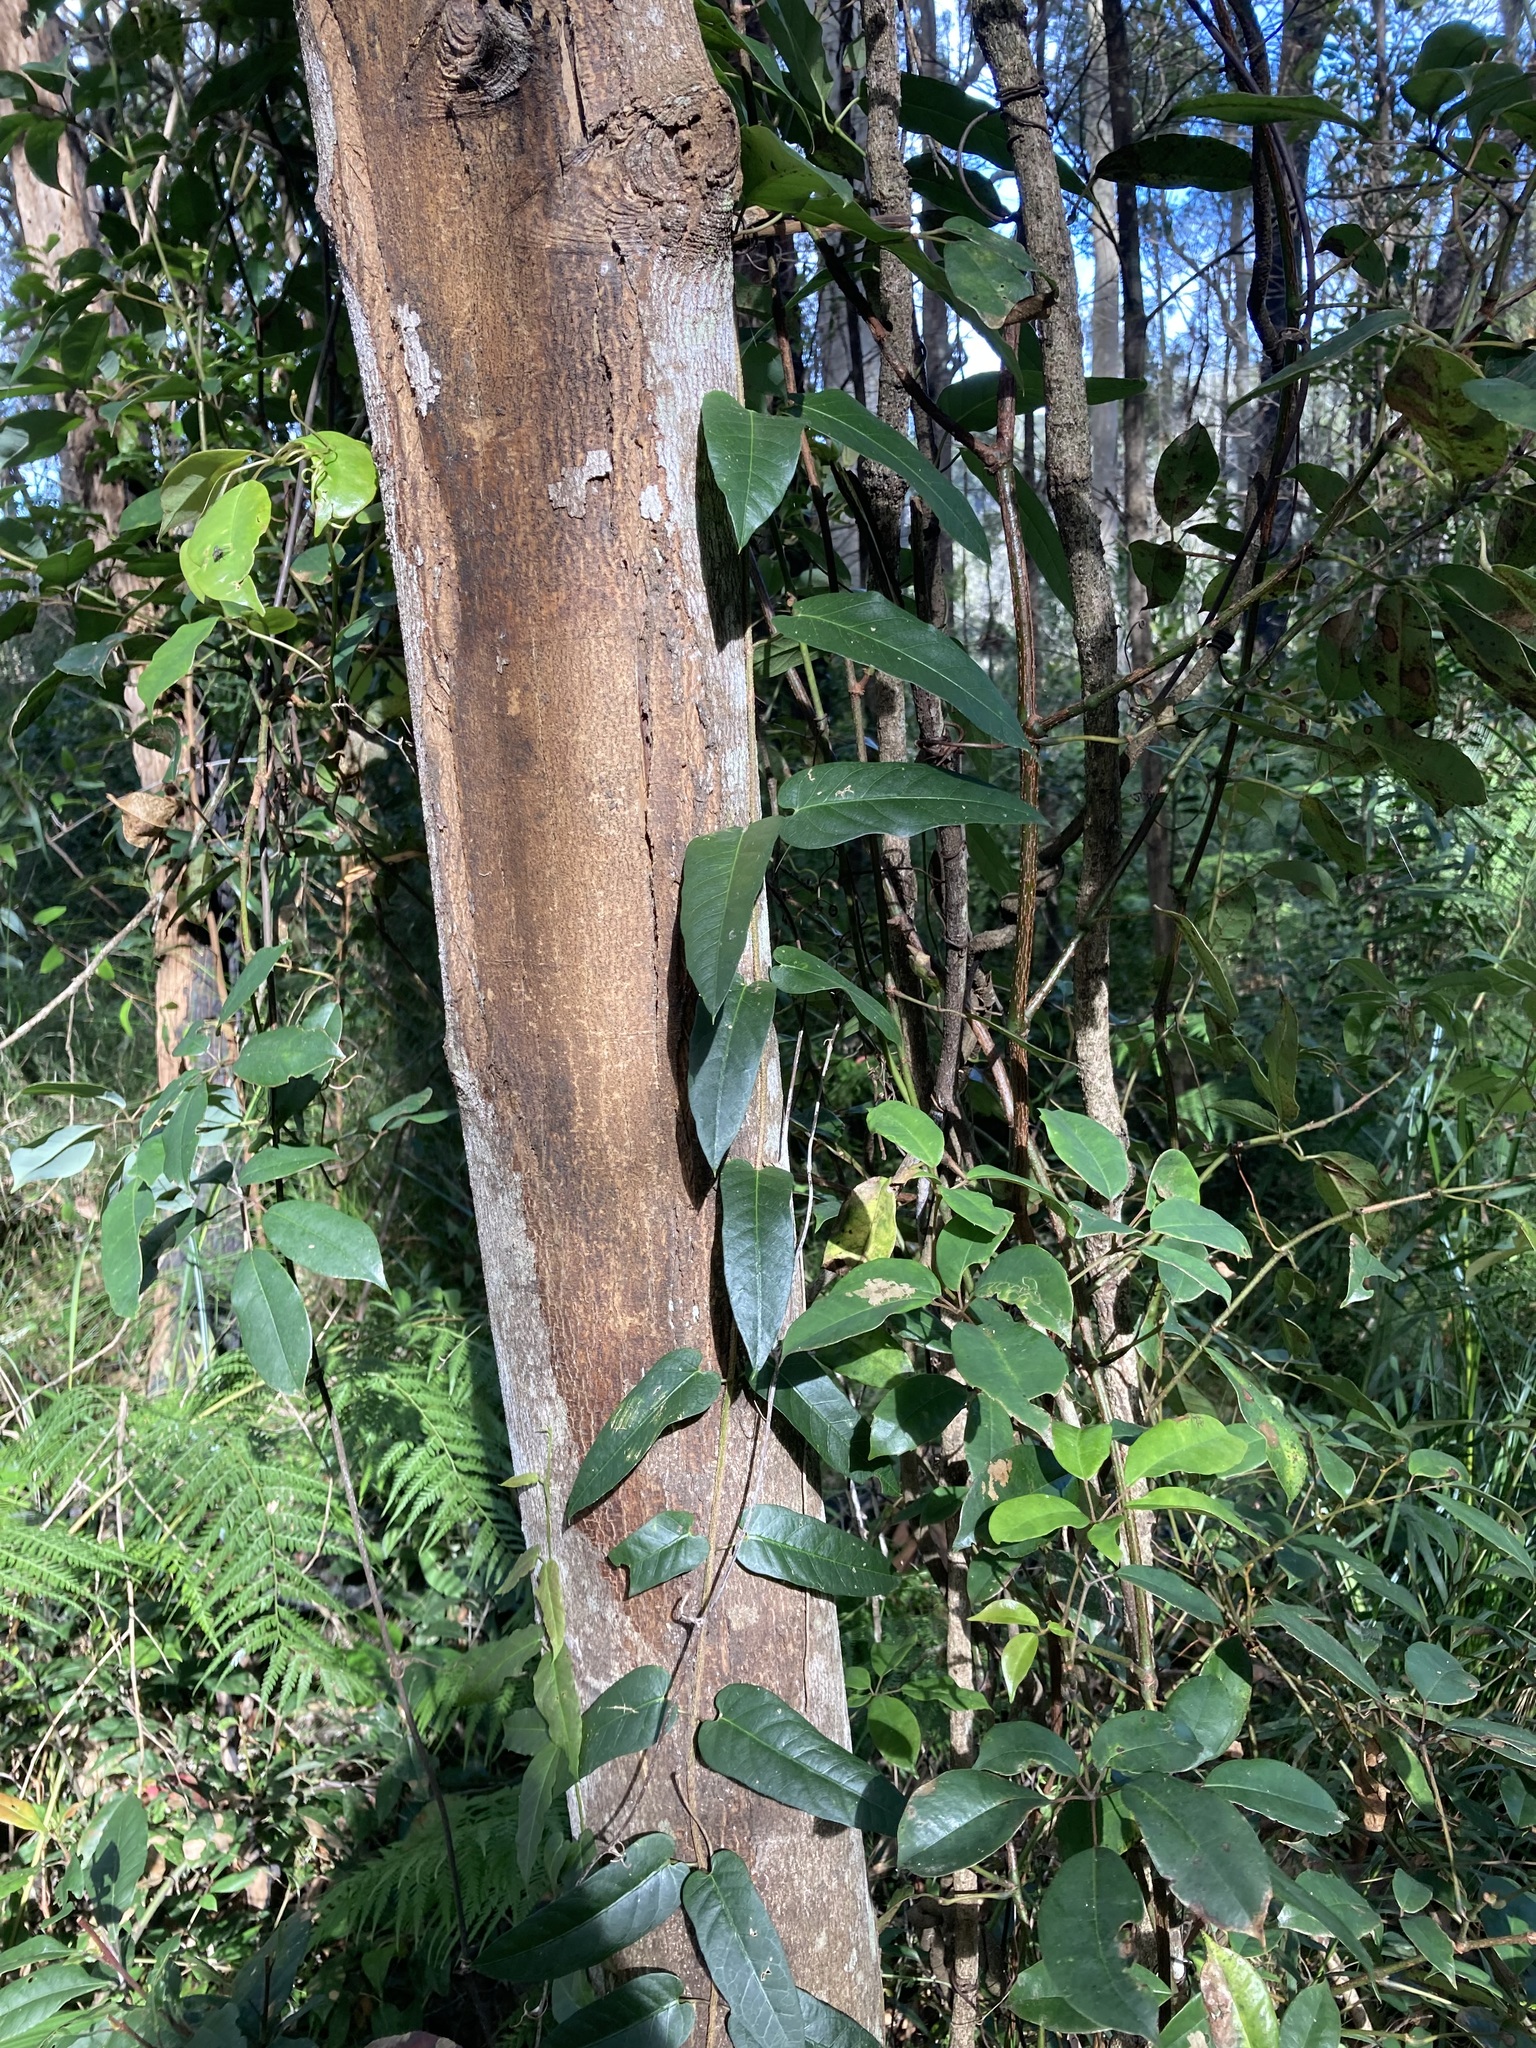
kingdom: Plantae
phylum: Tracheophyta
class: Magnoliopsida
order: Gentianales
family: Apocynaceae
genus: Parsonsia
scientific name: Parsonsia straminea
